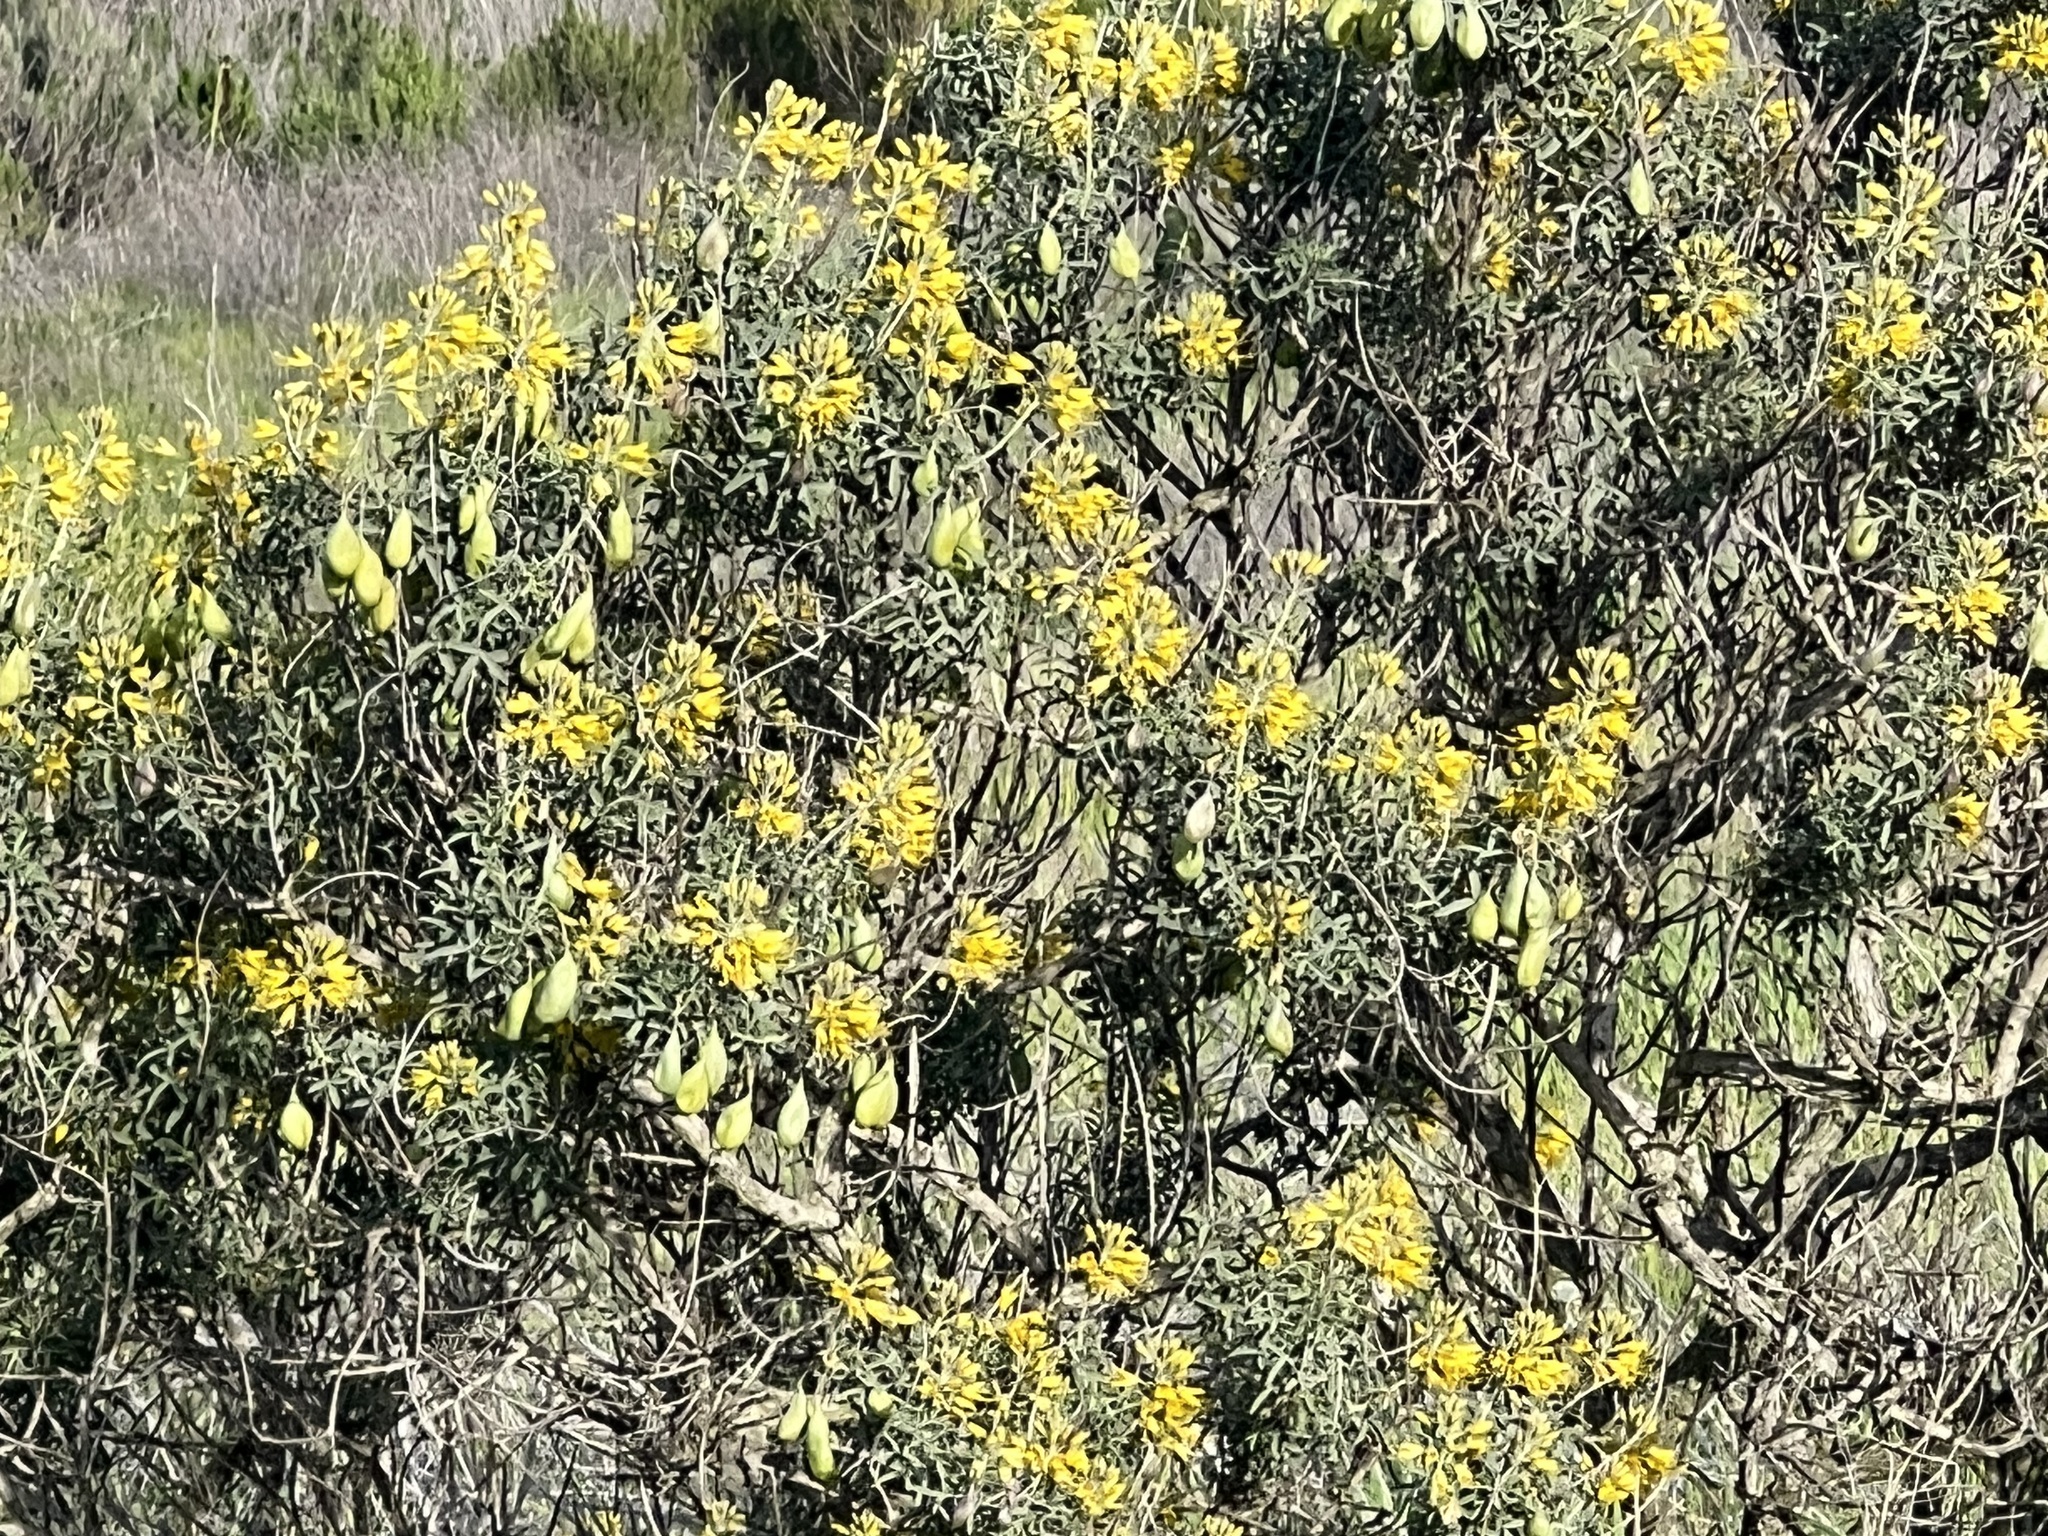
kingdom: Plantae
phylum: Tracheophyta
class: Magnoliopsida
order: Brassicales
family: Cleomaceae
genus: Cleomella
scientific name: Cleomella arborea
